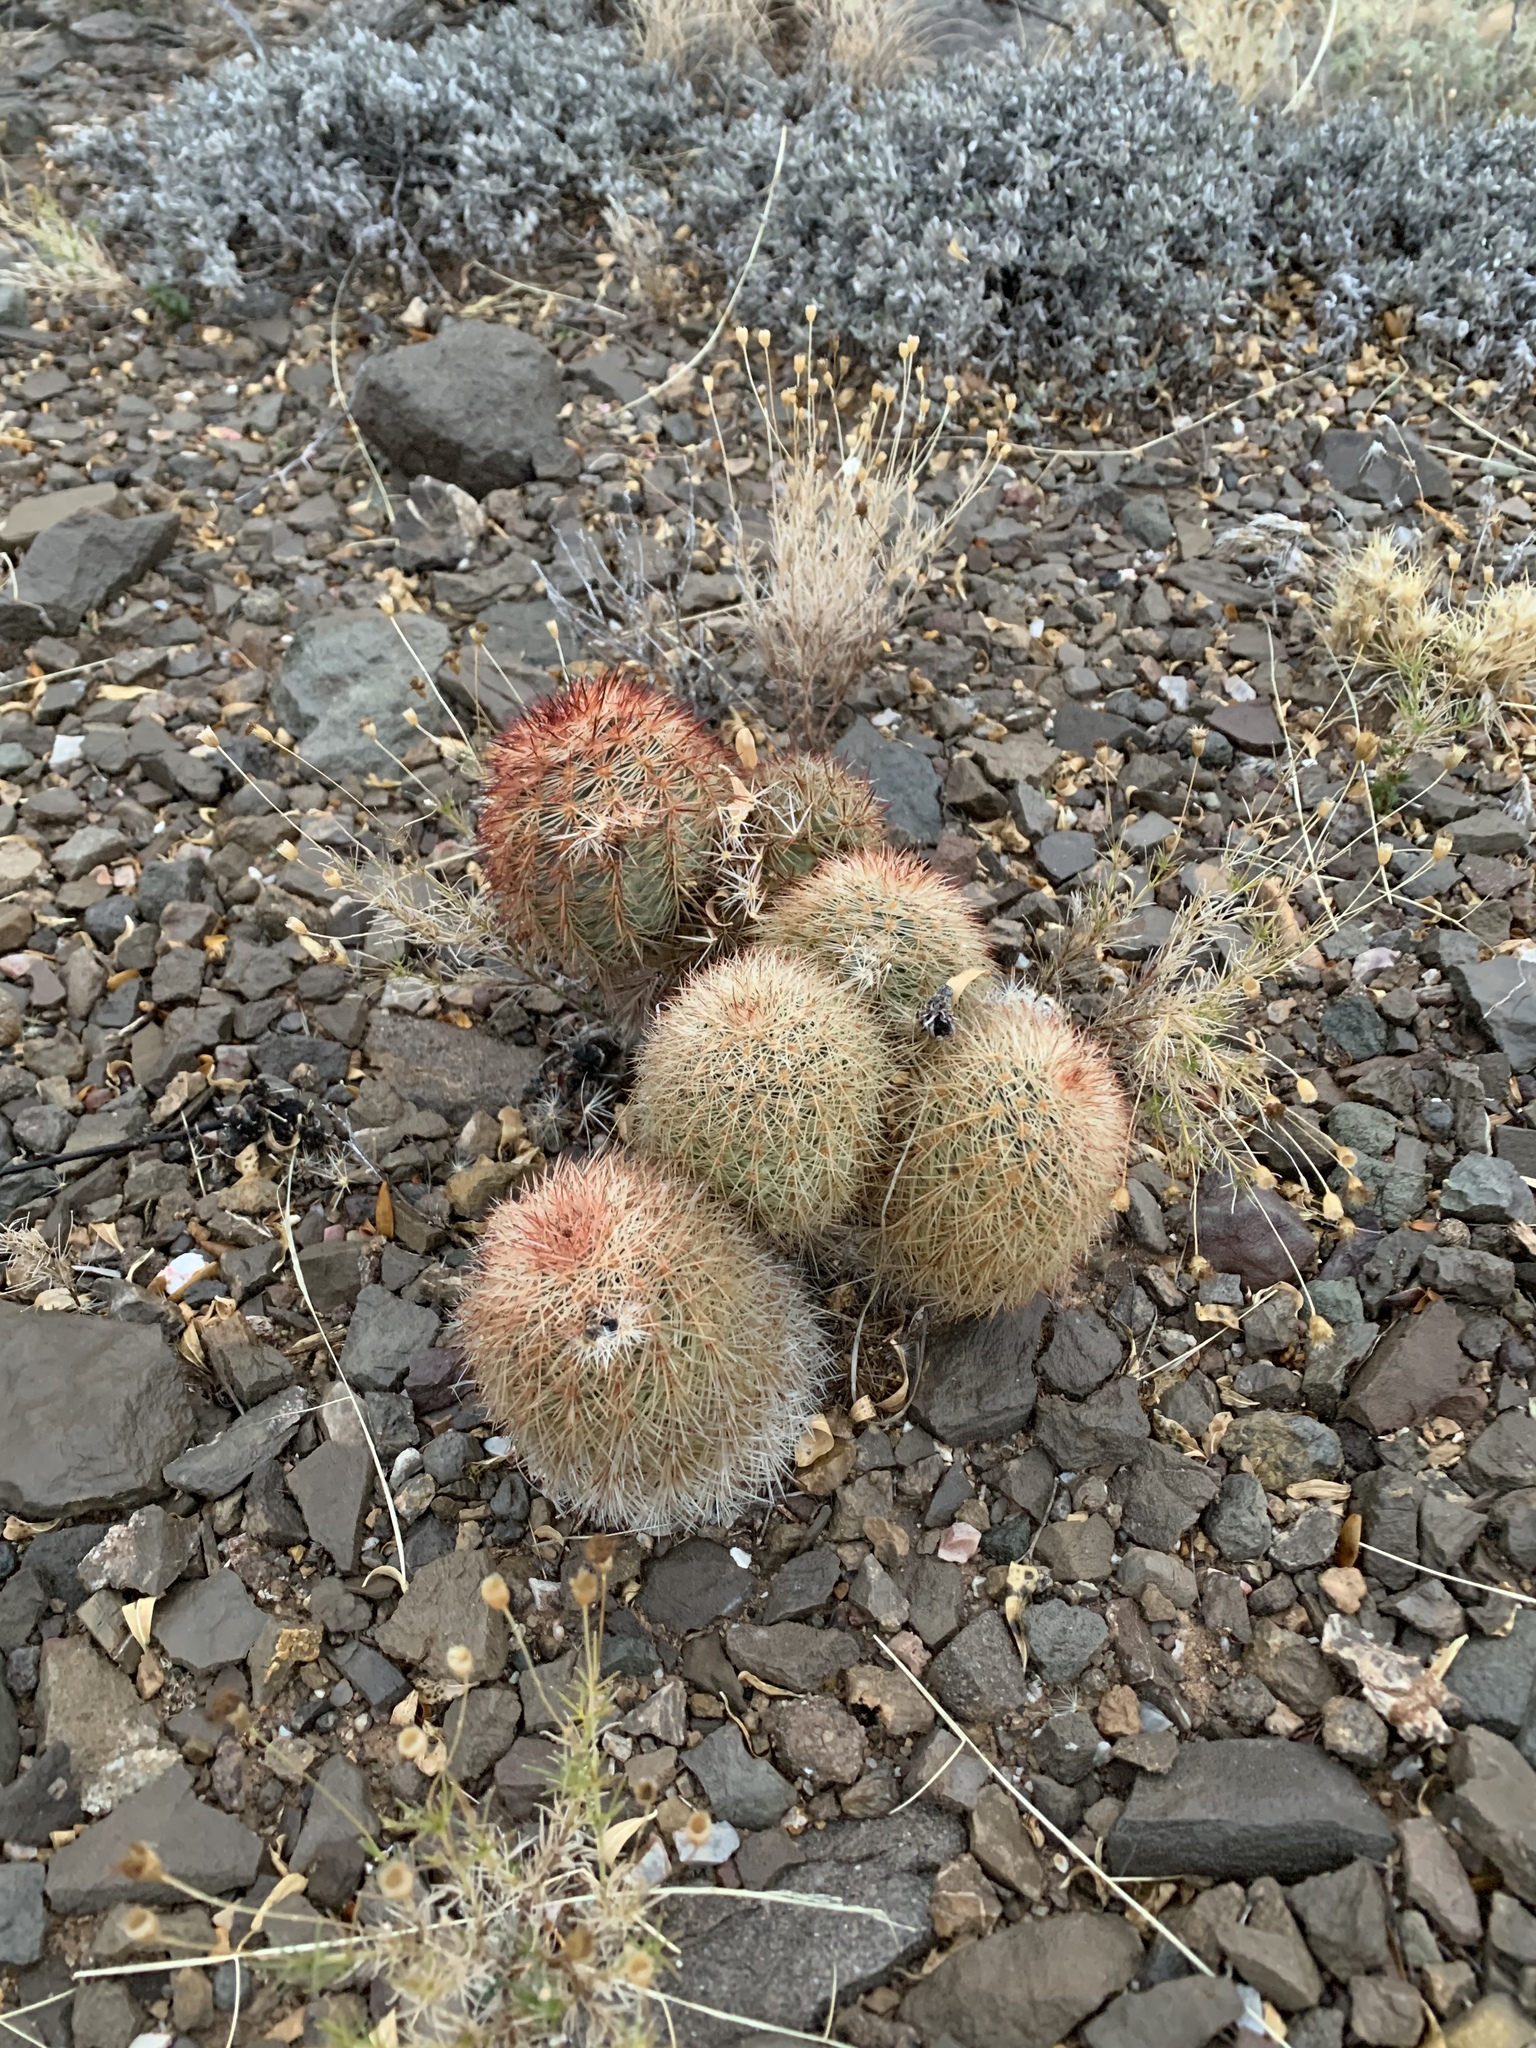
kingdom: Plantae
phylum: Tracheophyta
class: Magnoliopsida
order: Caryophyllales
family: Cactaceae
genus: Echinocereus
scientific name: Echinocereus dasyacanthus
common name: Spiny hedgehog cactus
